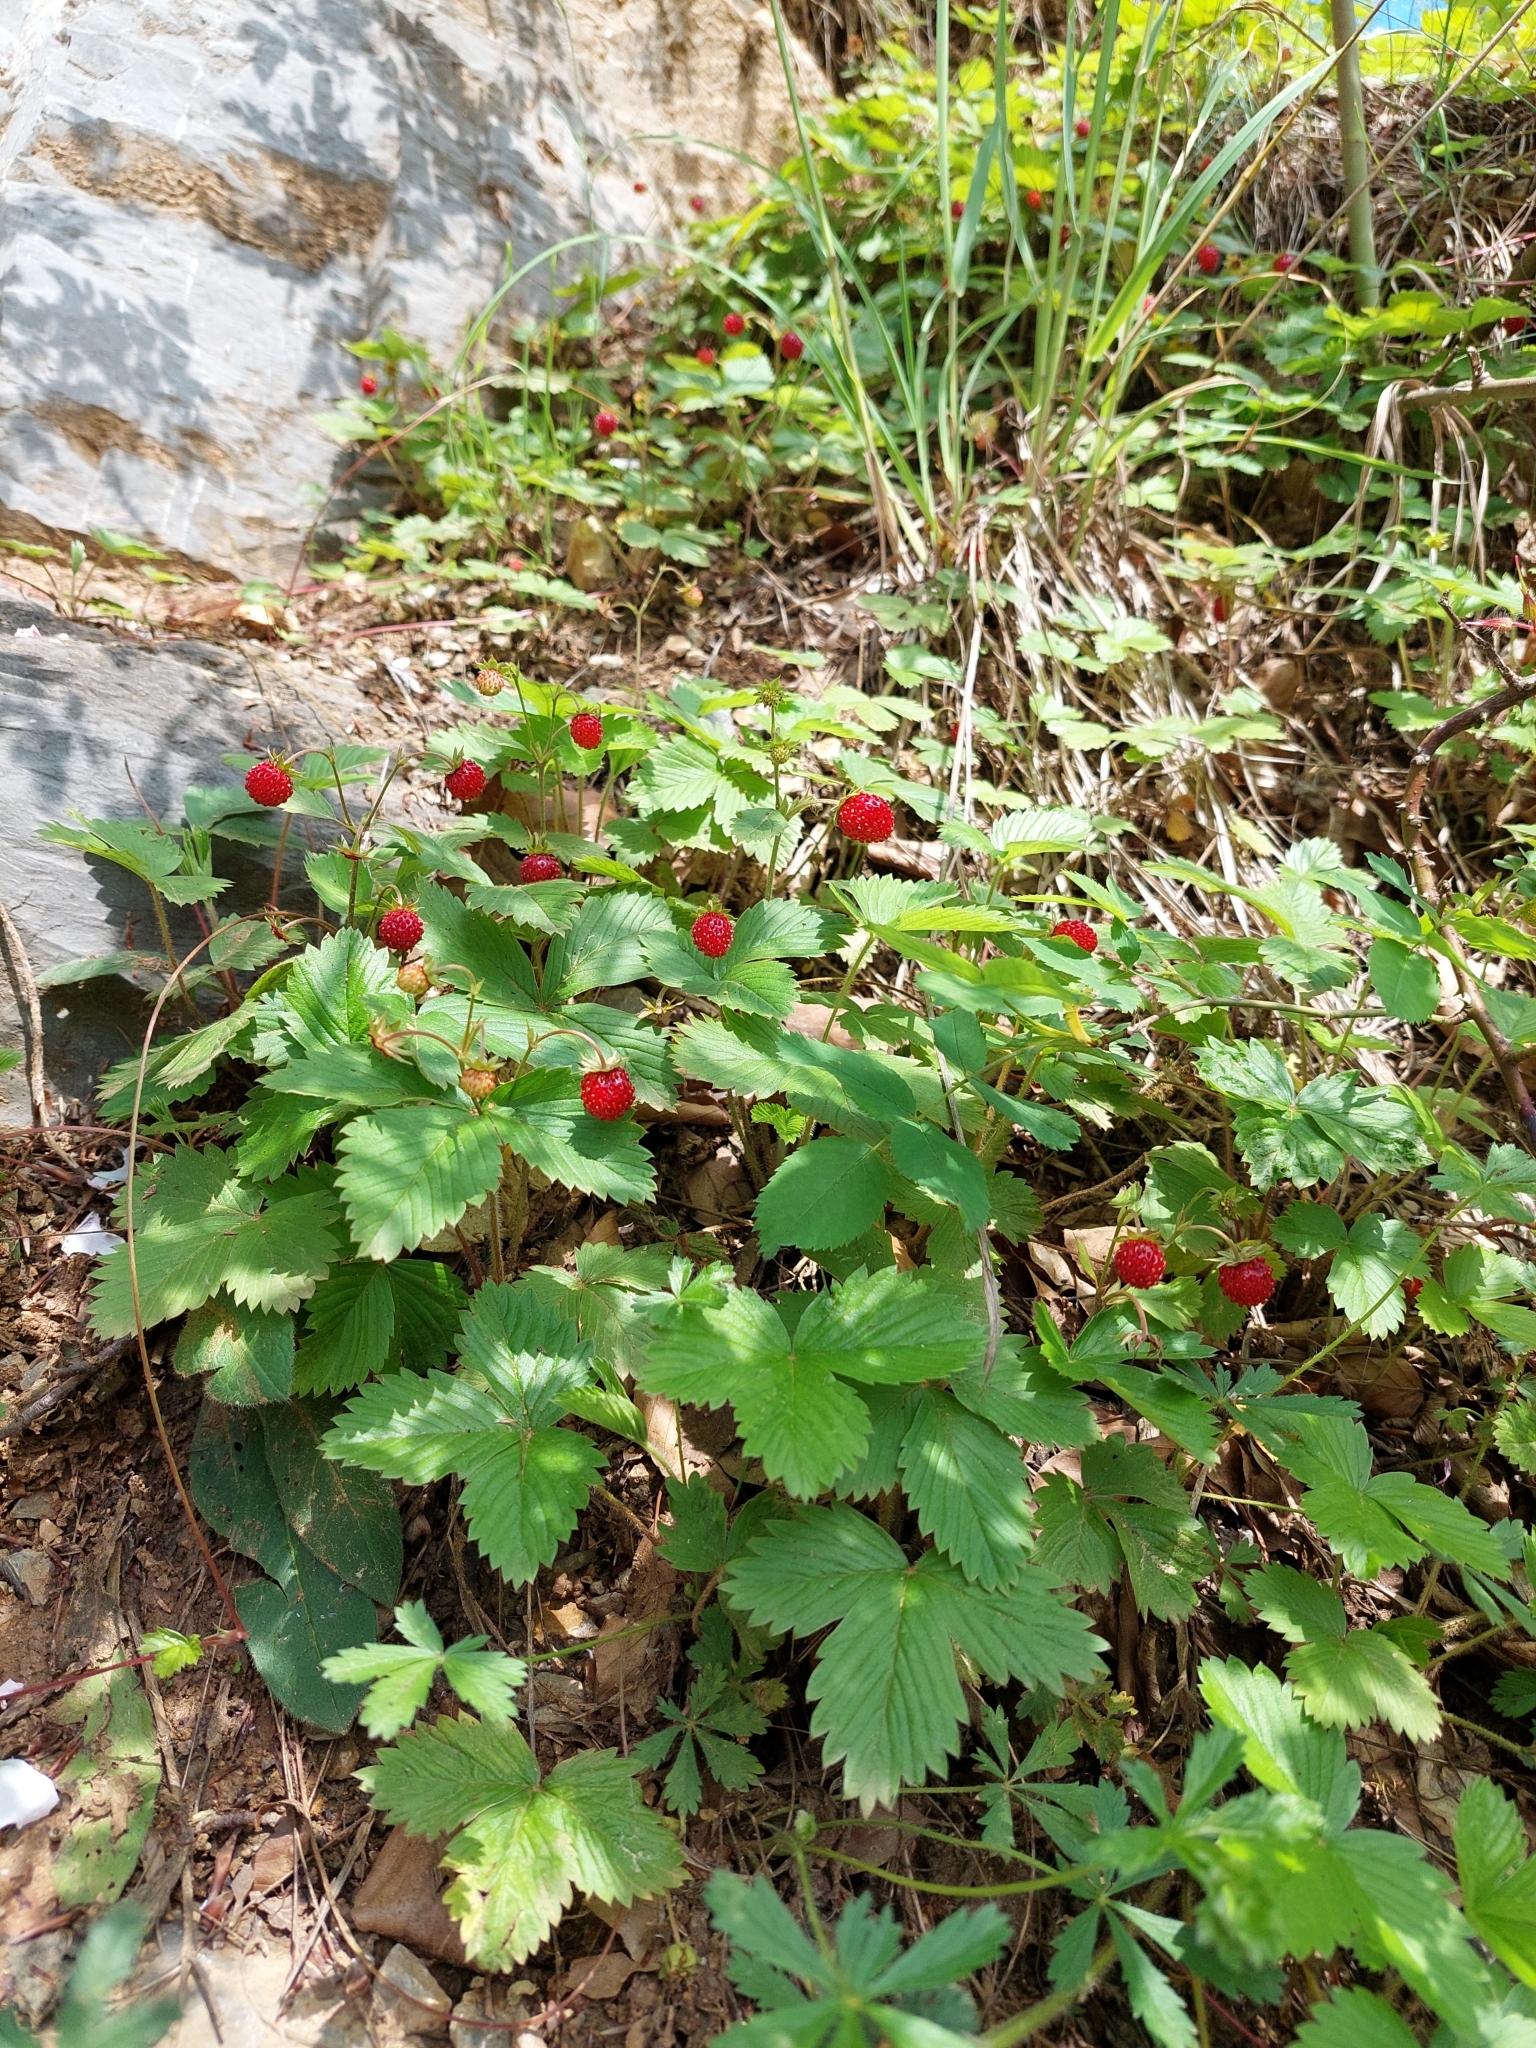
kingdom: Plantae
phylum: Tracheophyta
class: Magnoliopsida
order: Rosales
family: Rosaceae
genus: Fragaria
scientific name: Fragaria vesca
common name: Wild strawberry
